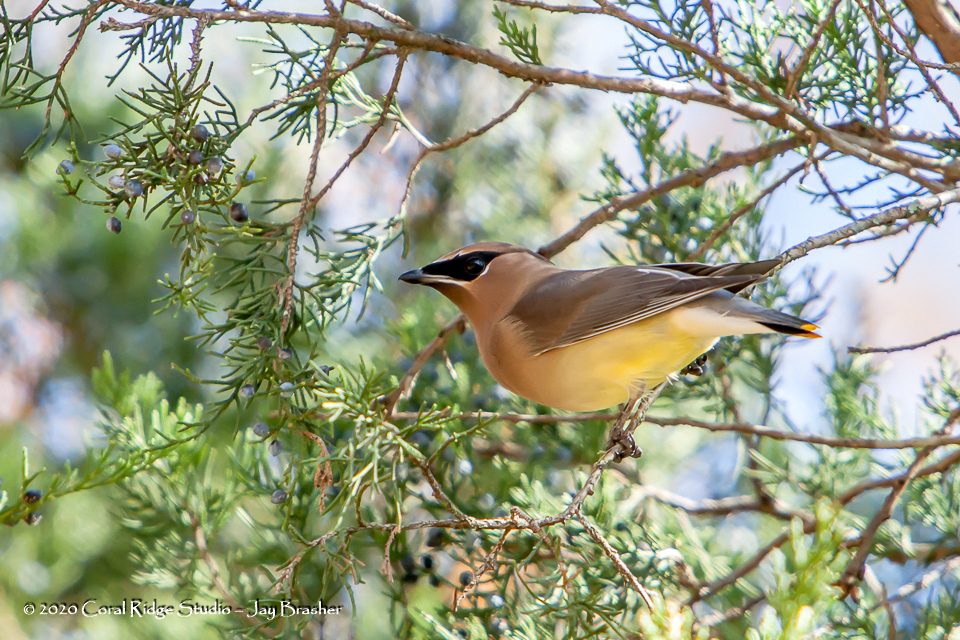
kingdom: Animalia
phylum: Chordata
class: Aves
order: Passeriformes
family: Bombycillidae
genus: Bombycilla
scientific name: Bombycilla cedrorum
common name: Cedar waxwing
